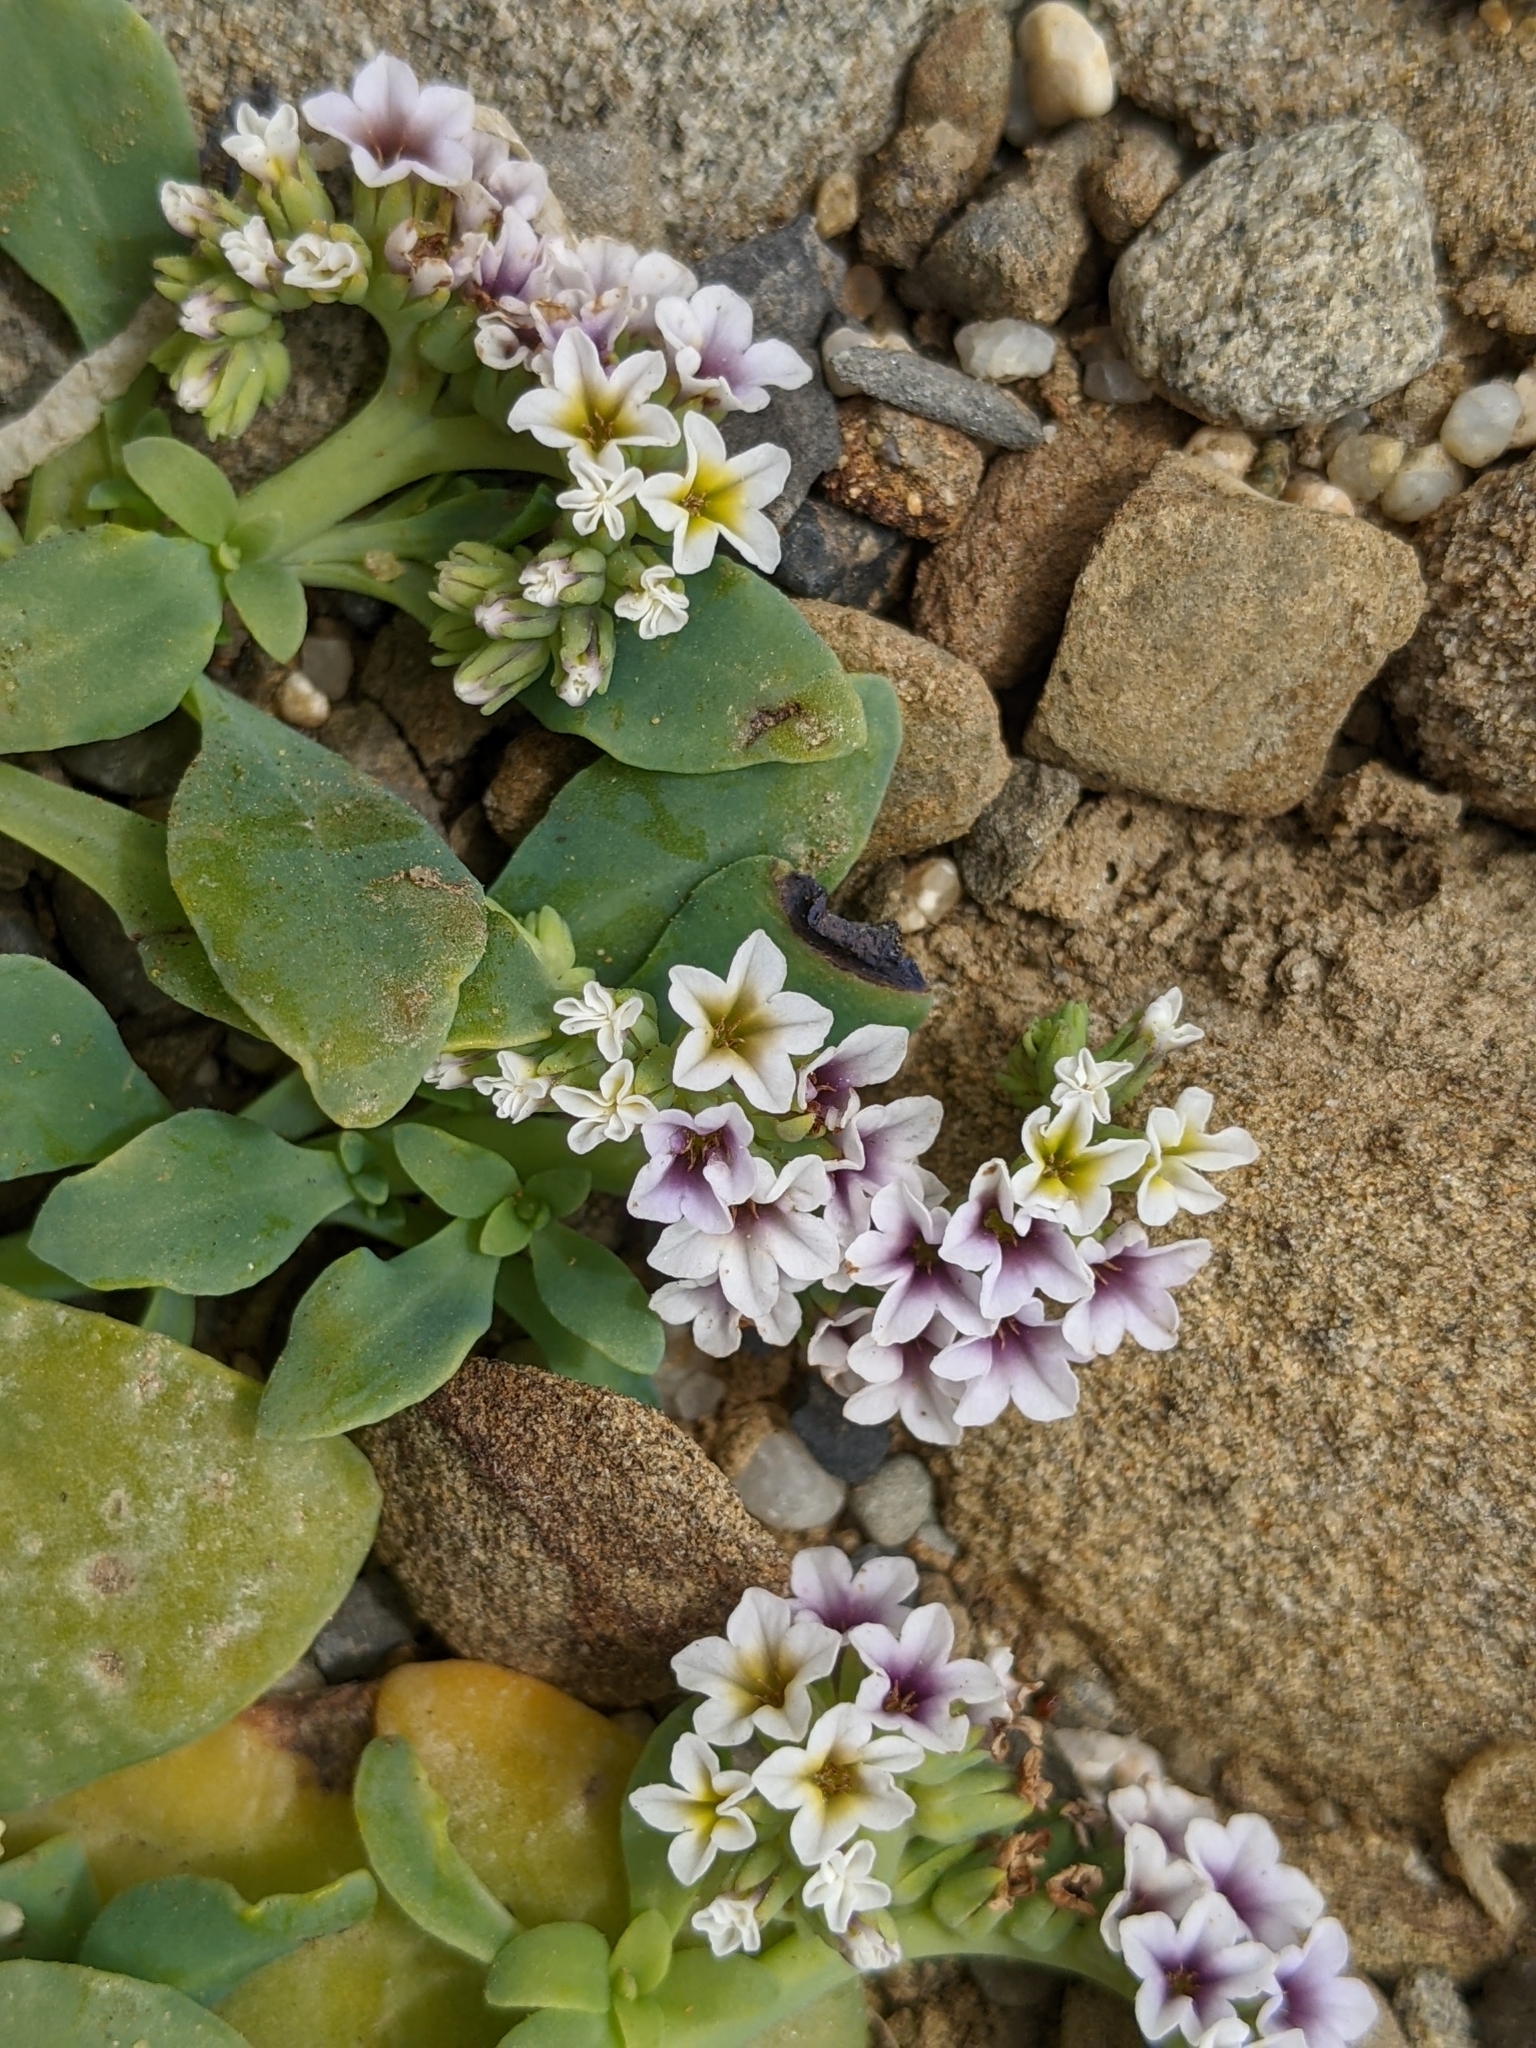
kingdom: Plantae
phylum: Tracheophyta
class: Magnoliopsida
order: Boraginales
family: Heliotropiaceae
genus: Heliotropium
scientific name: Heliotropium curassavicum
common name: Seaside heliotrope
